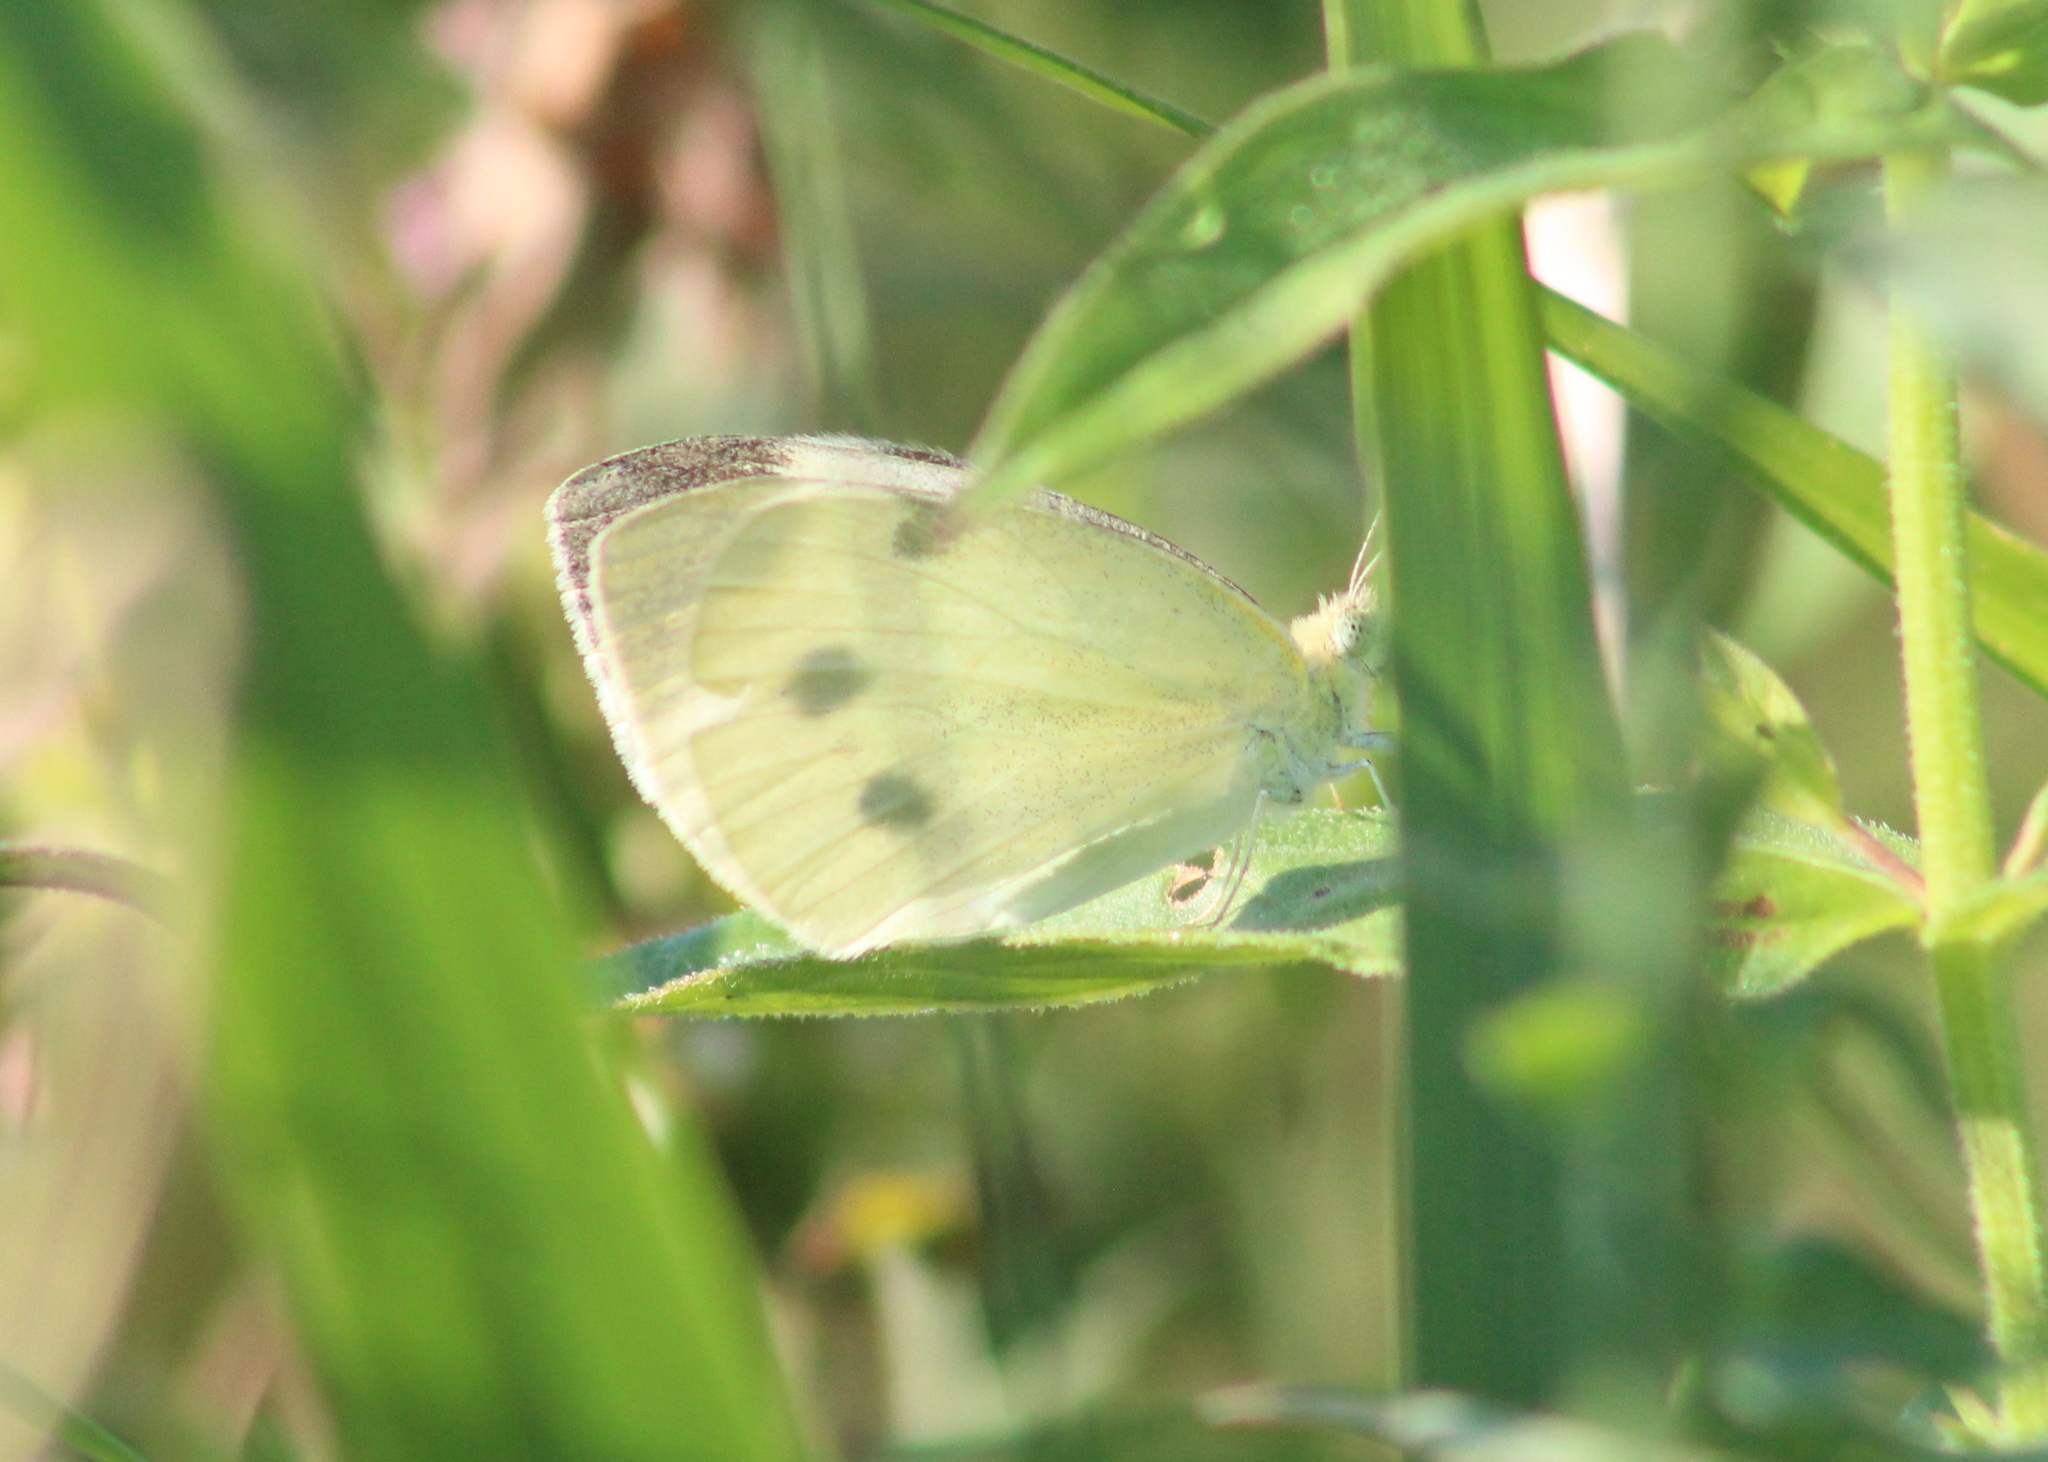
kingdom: Animalia
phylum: Arthropoda
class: Insecta
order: Lepidoptera
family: Pieridae
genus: Pieris
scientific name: Pieris rapae
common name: Small white
